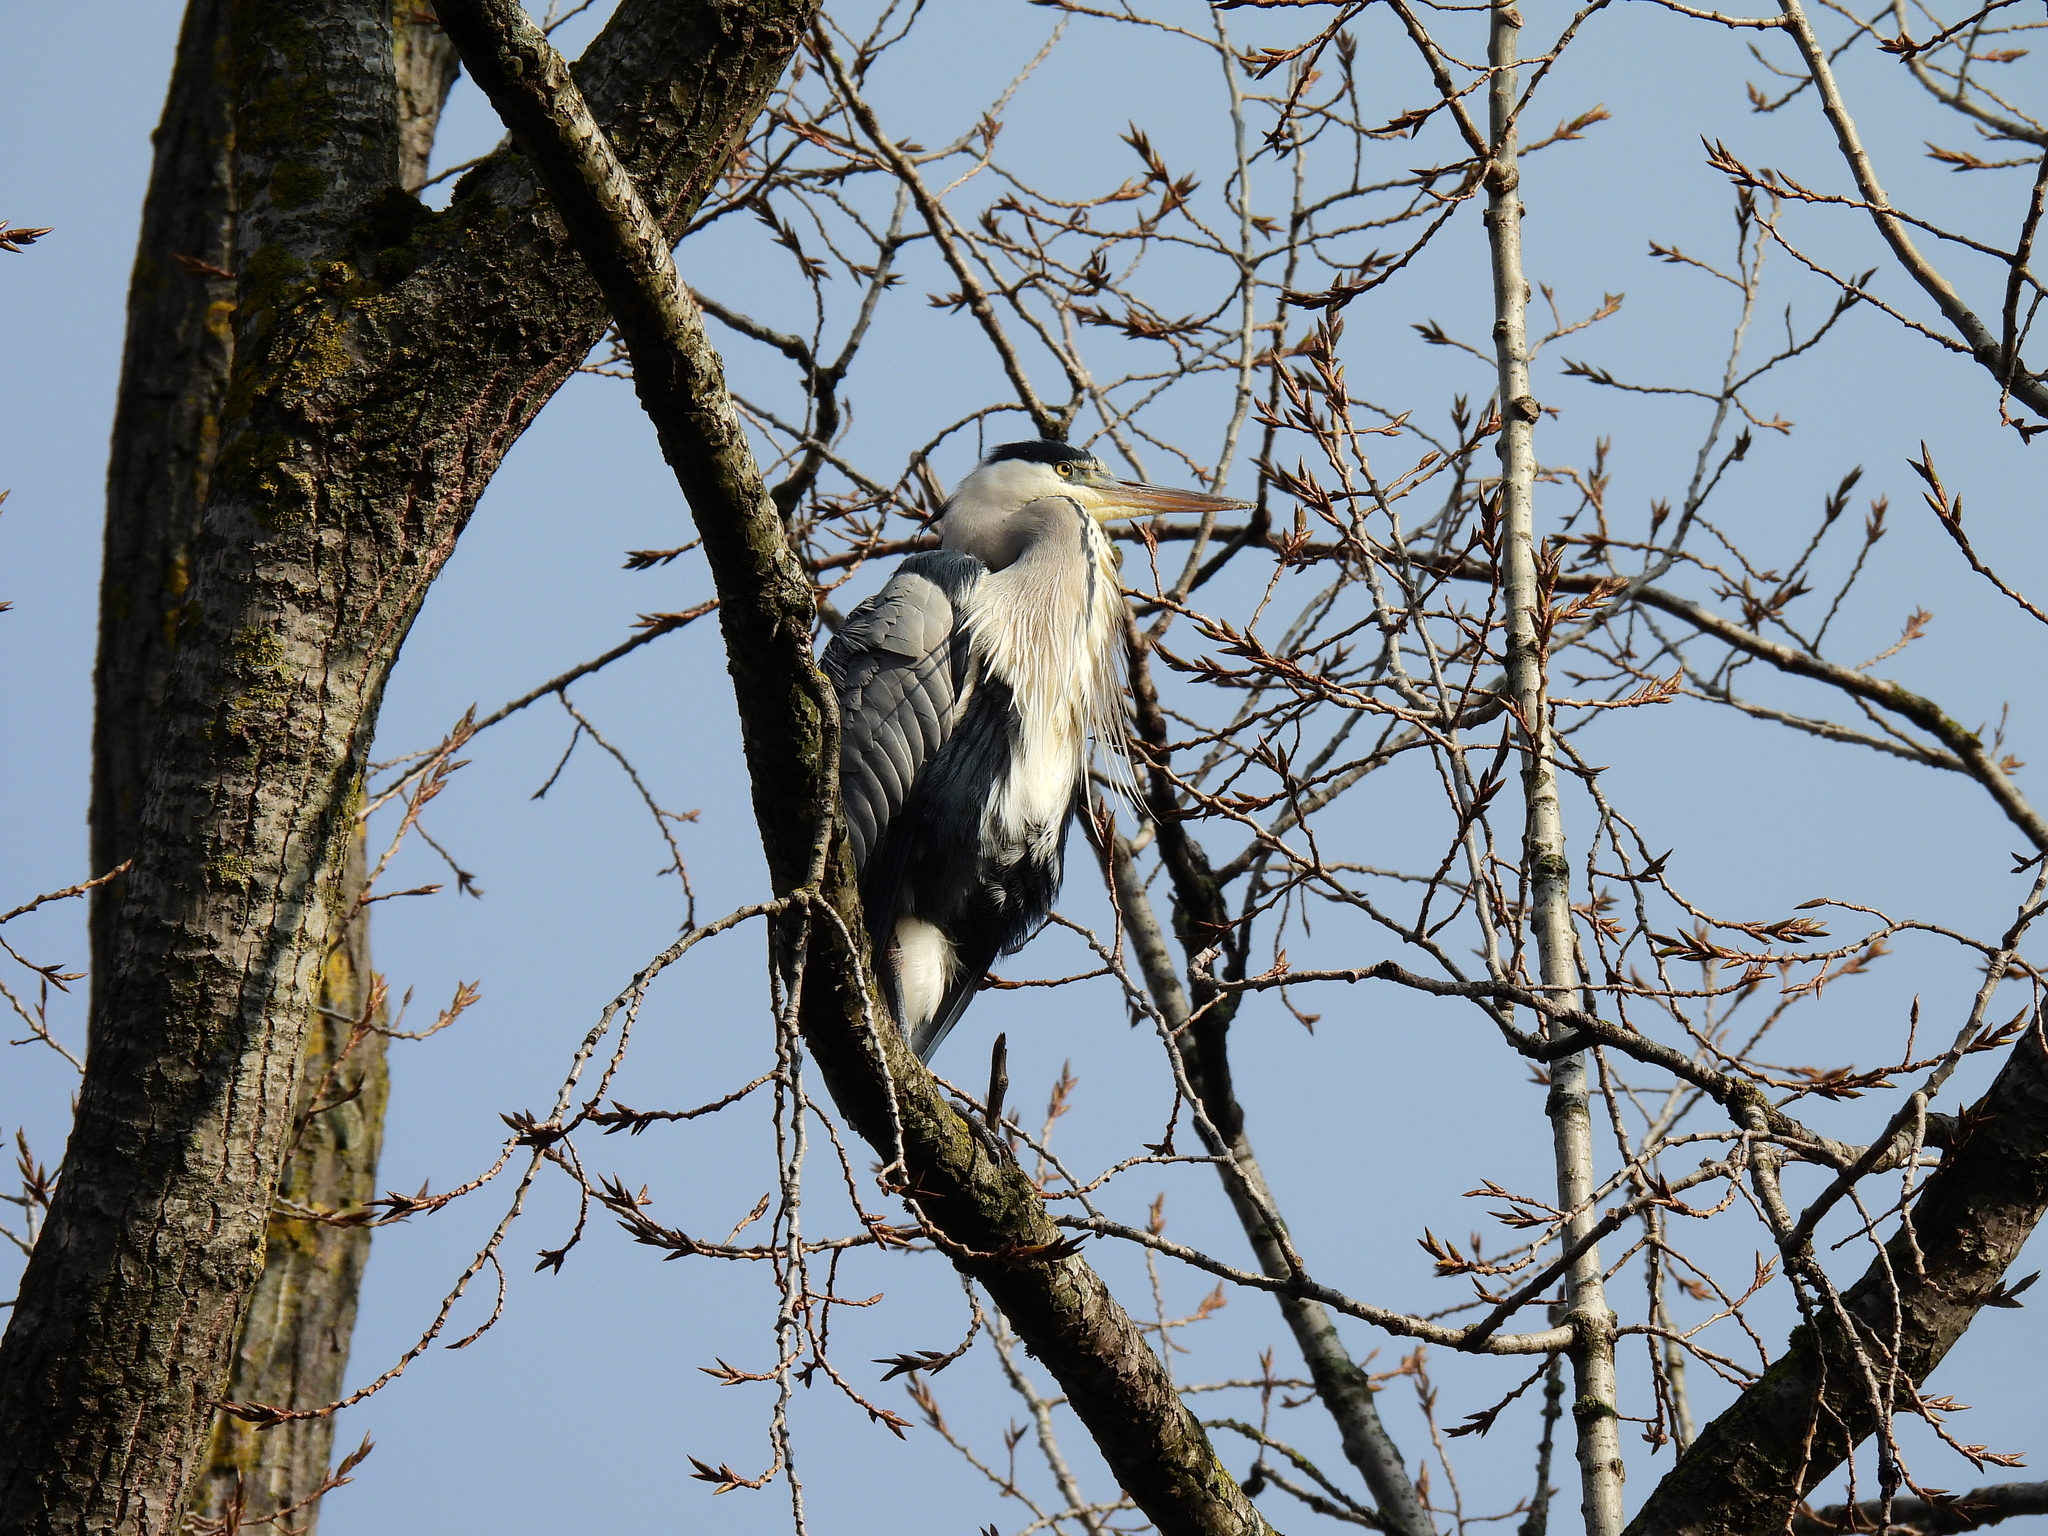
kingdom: Animalia
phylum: Chordata
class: Aves
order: Pelecaniformes
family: Ardeidae
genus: Ardea
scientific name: Ardea cinerea
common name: Grey heron
